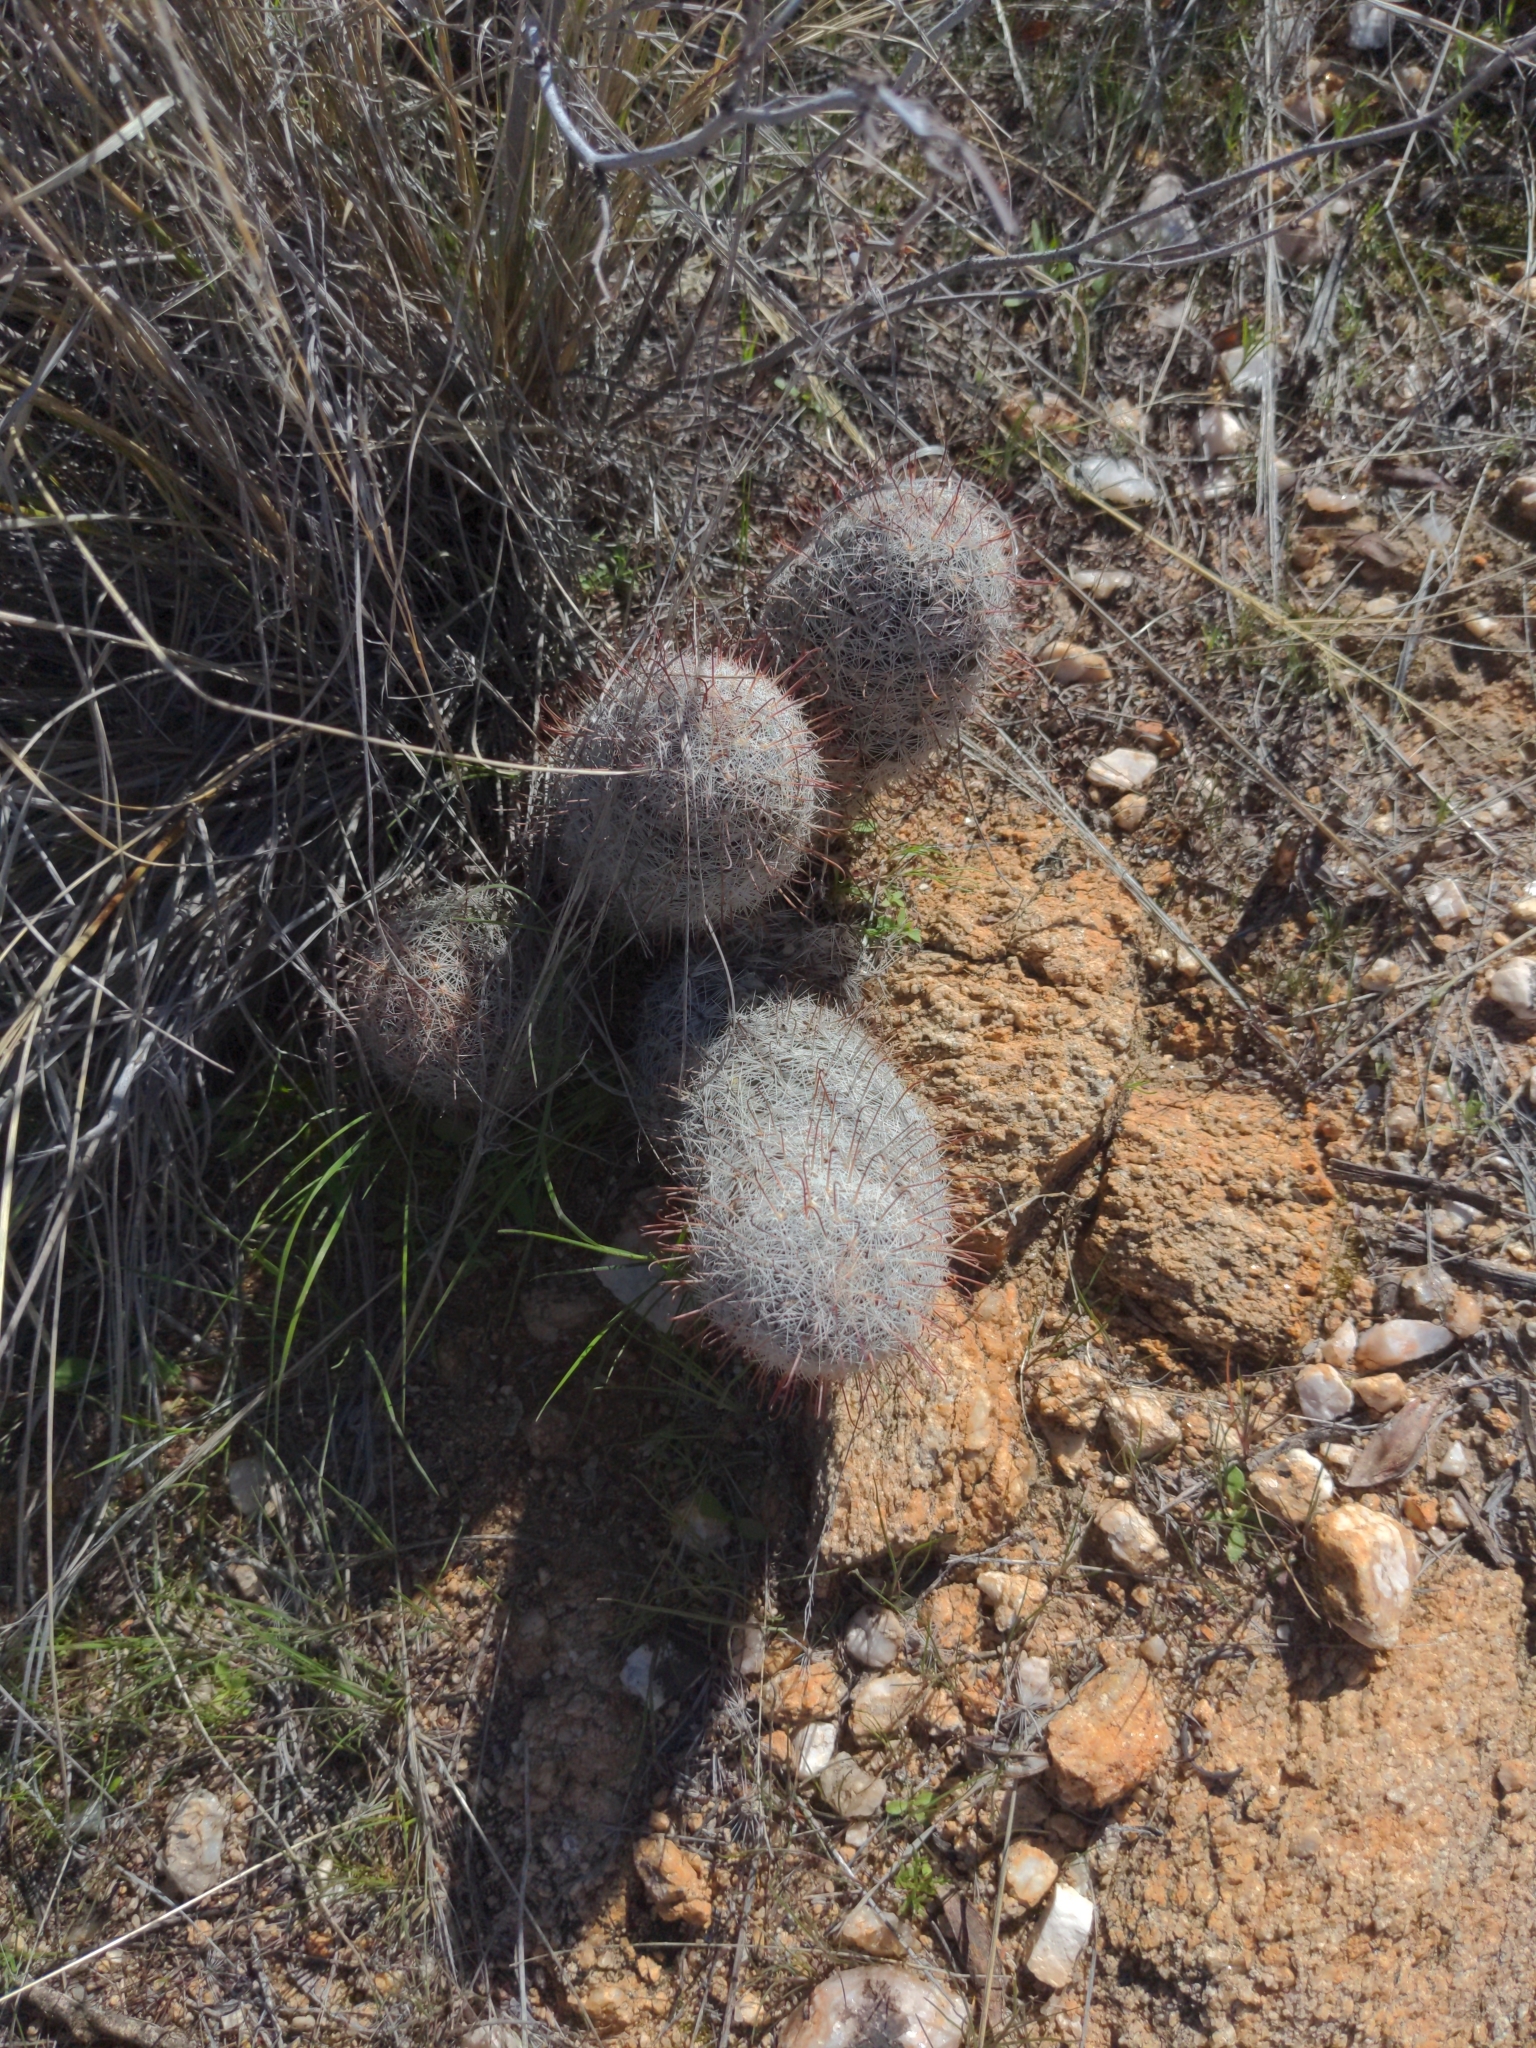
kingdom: Plantae
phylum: Tracheophyta
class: Magnoliopsida
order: Caryophyllales
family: Cactaceae
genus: Cochemiea
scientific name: Cochemiea grahamii
